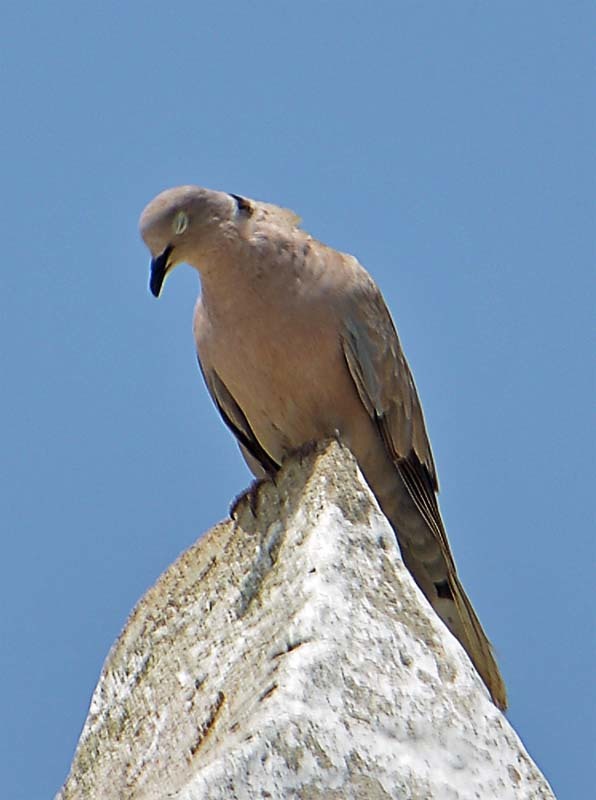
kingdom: Animalia
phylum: Chordata
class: Aves
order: Columbiformes
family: Columbidae
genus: Streptopelia
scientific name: Streptopelia decaocto
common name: Eurasian collared dove
